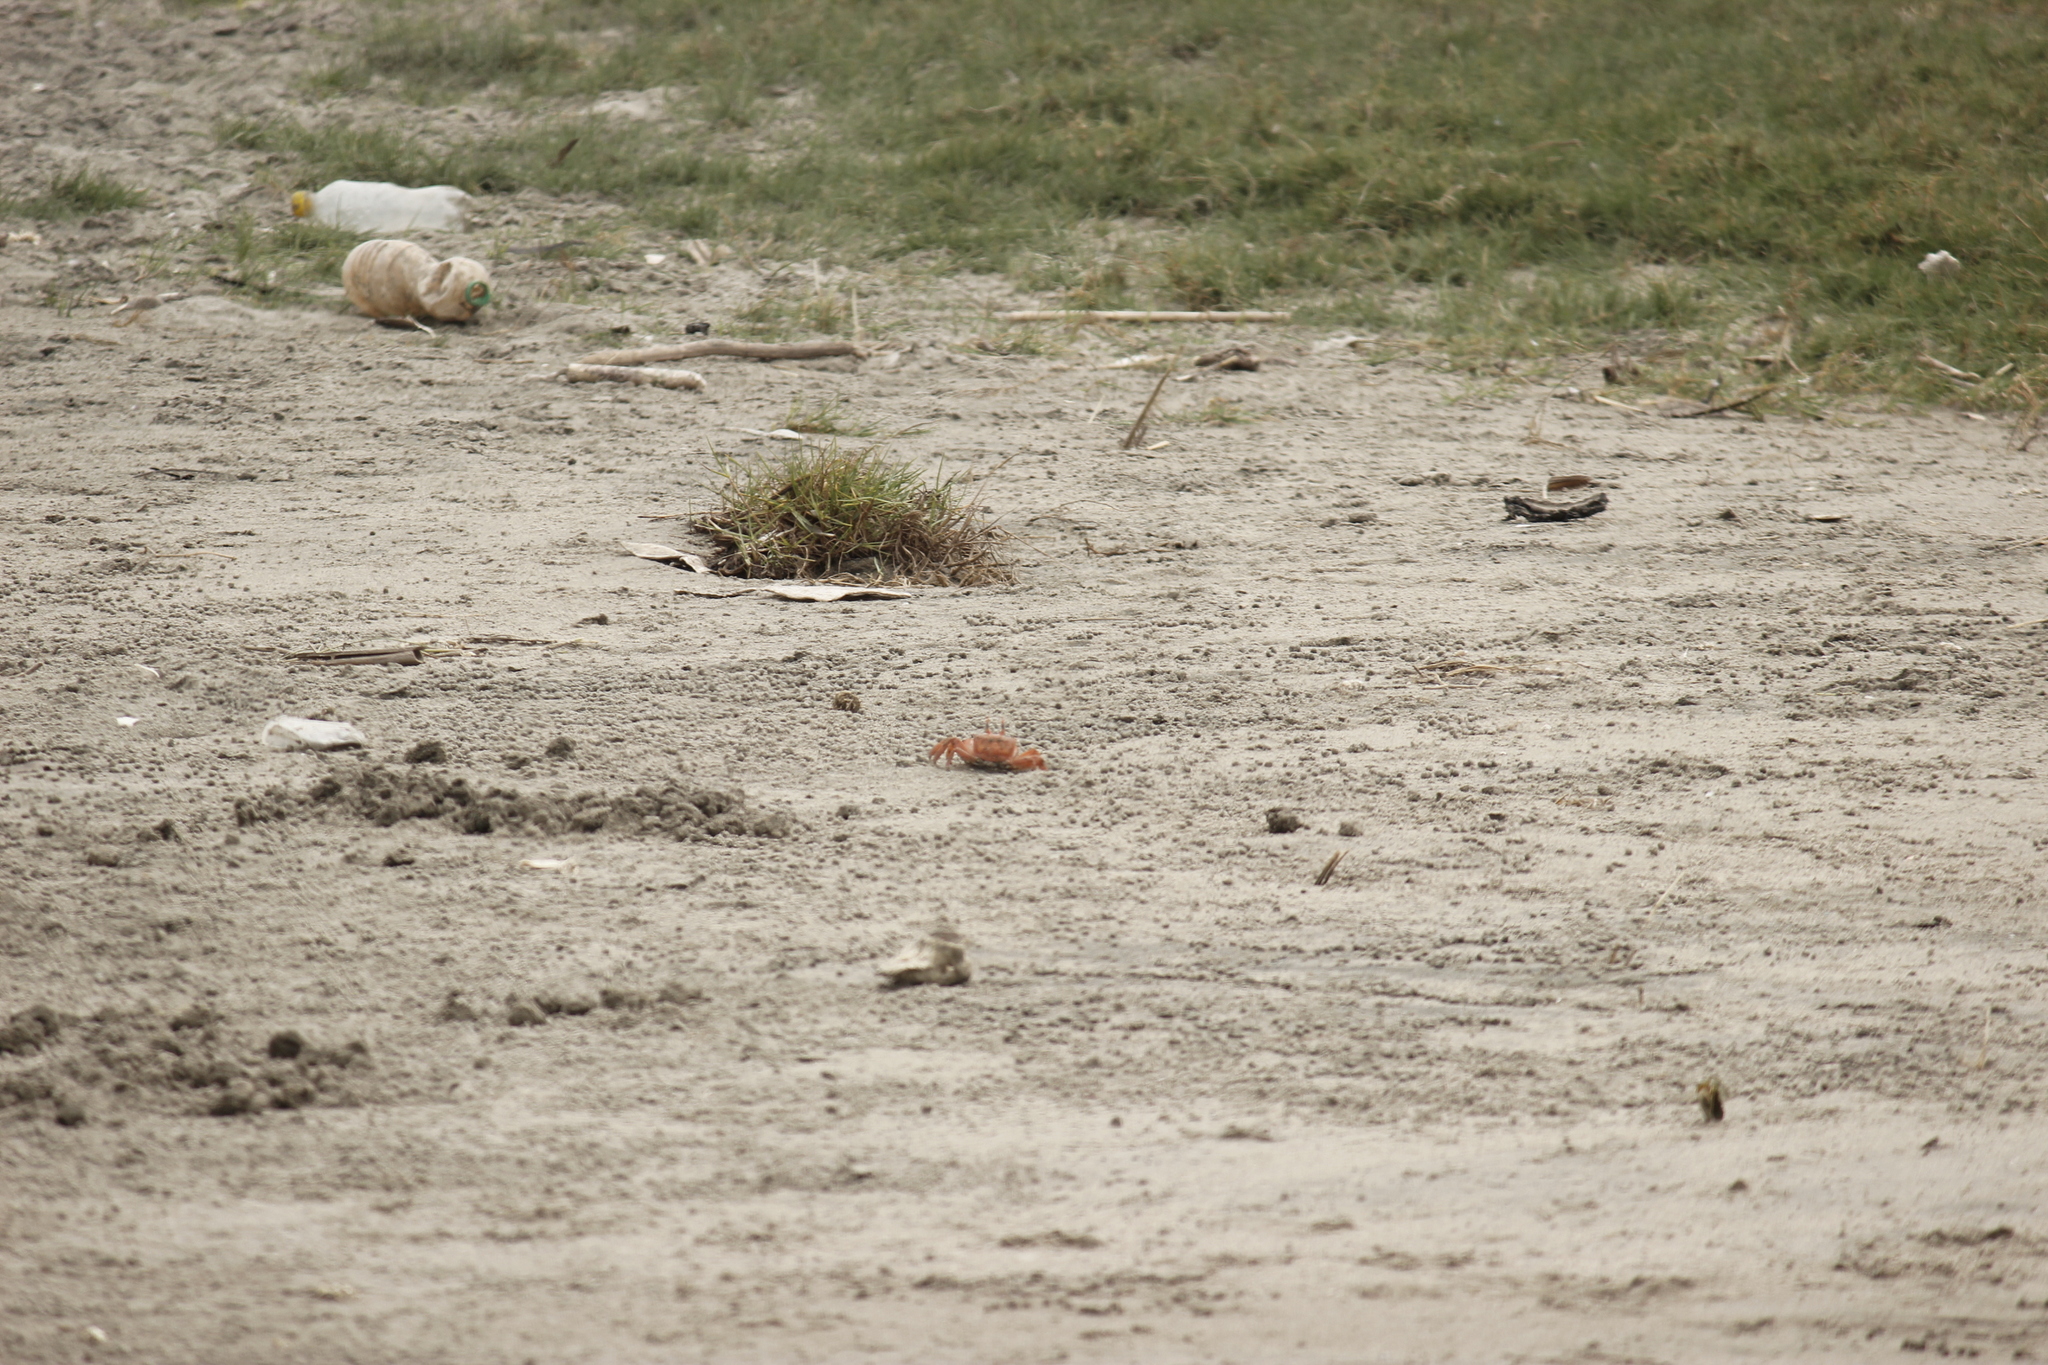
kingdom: Animalia
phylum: Arthropoda
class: Malacostraca
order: Decapoda
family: Ocypodidae
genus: Ocypode
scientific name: Ocypode gaudichaudii
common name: Pacific ghost crab
